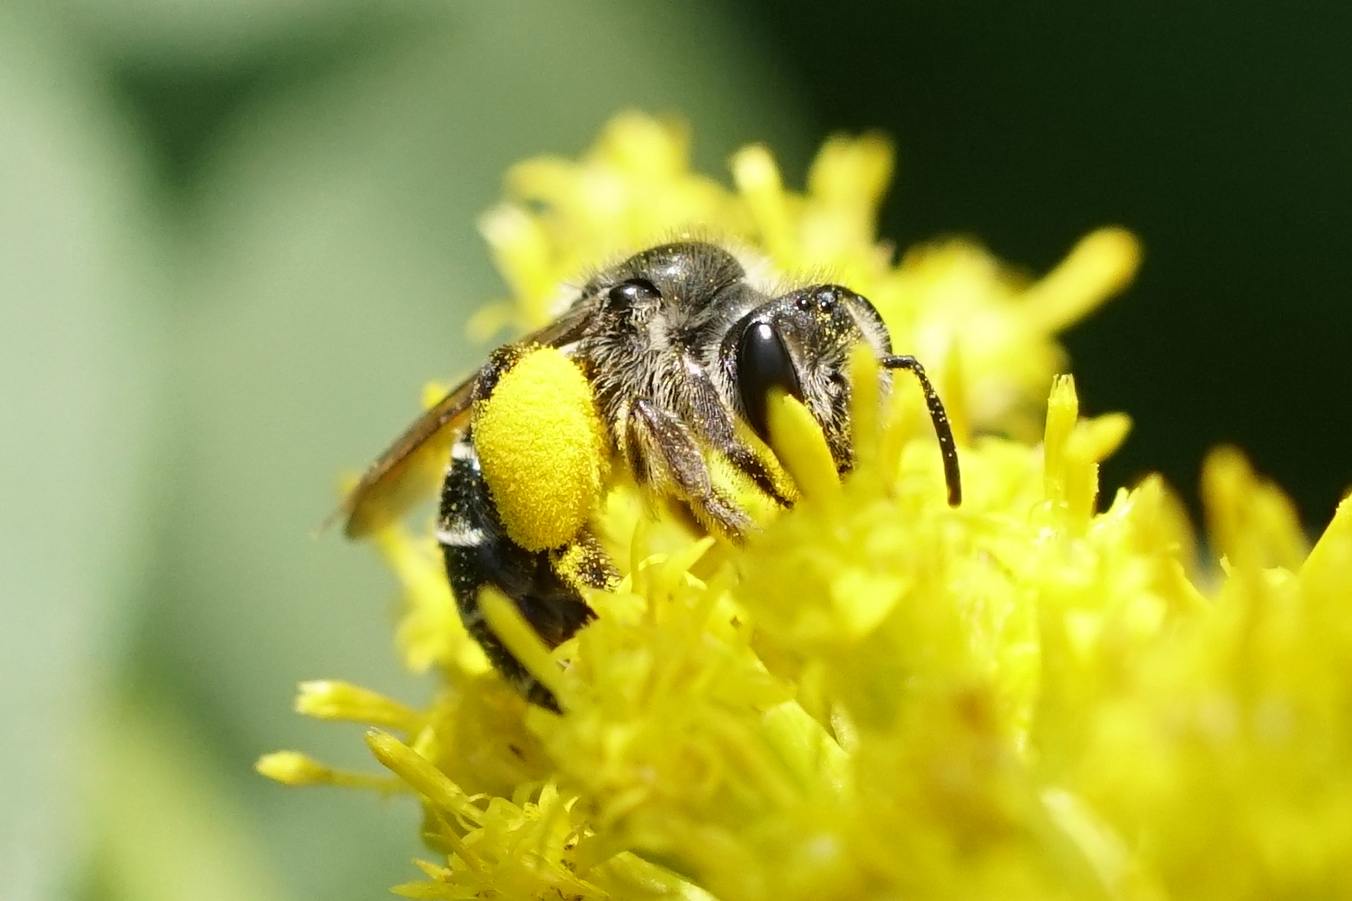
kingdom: Animalia
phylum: Arthropoda
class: Insecta
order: Hymenoptera
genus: Callandrena
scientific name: Callandrena
